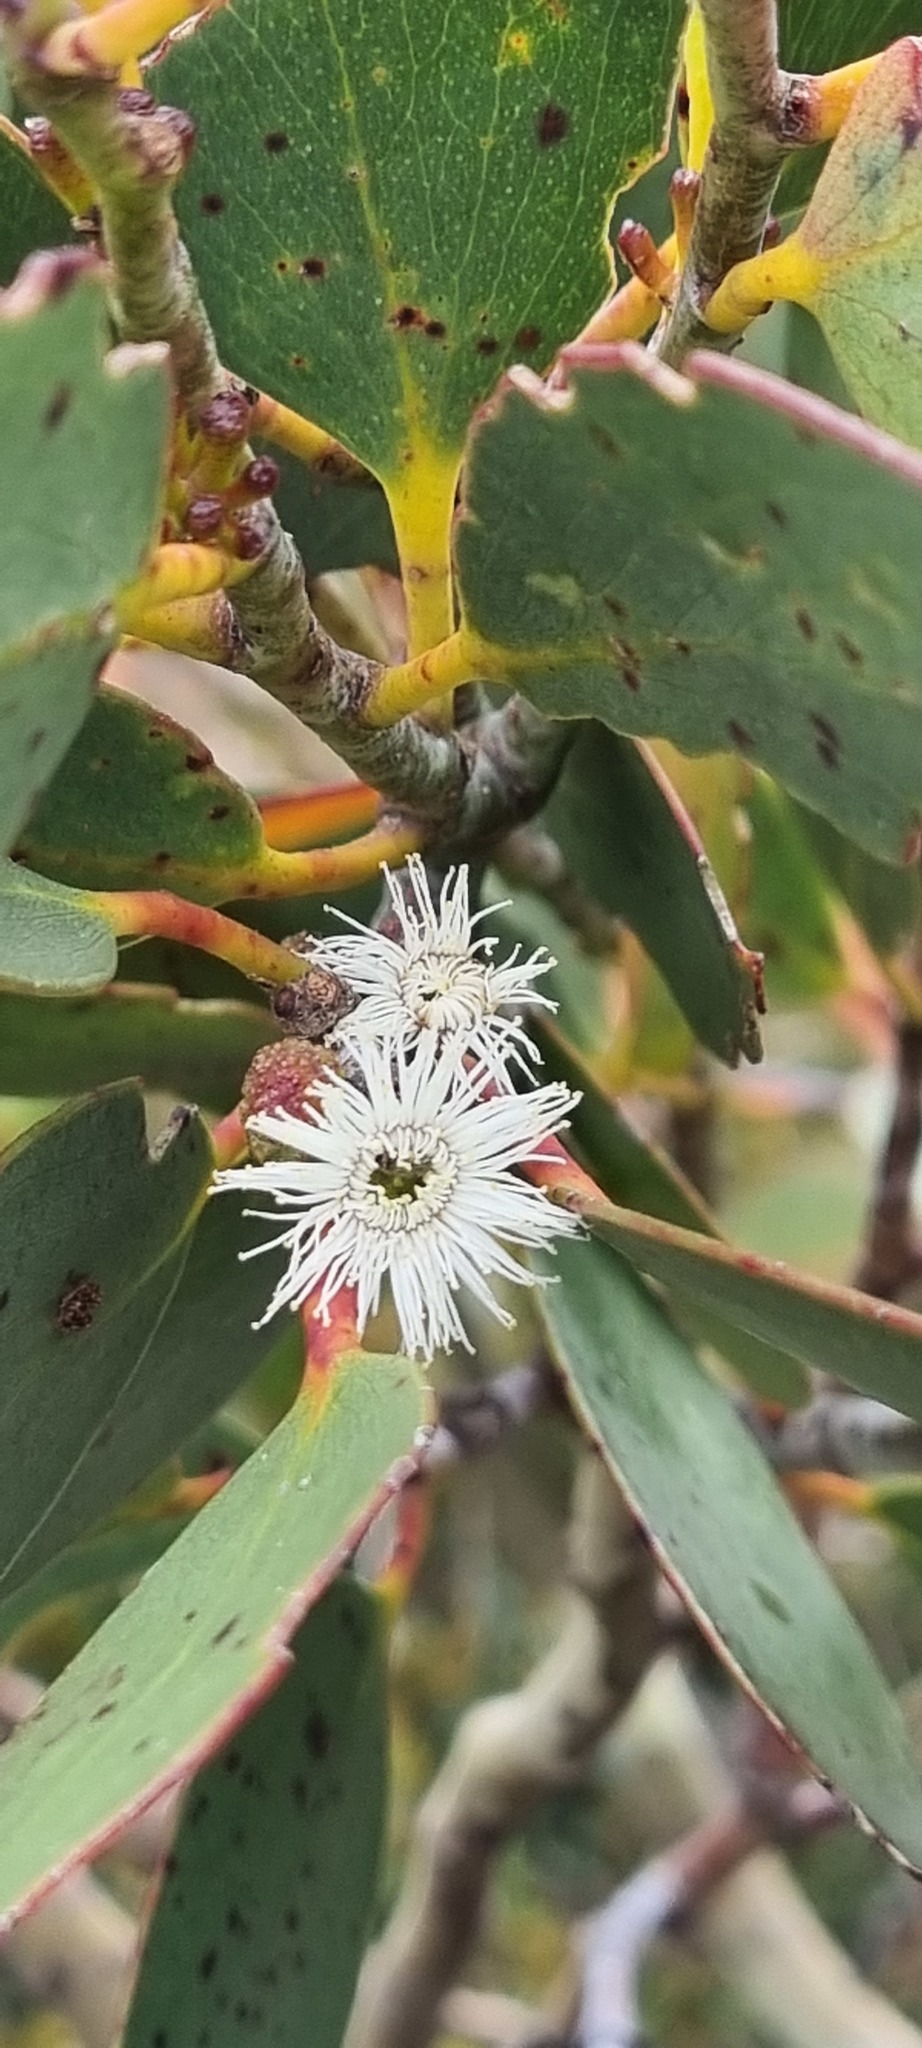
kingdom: Plantae
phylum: Tracheophyta
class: Magnoliopsida
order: Myrtales
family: Myrtaceae
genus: Eucalyptus
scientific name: Eucalyptus pauciflora
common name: Snow gum
